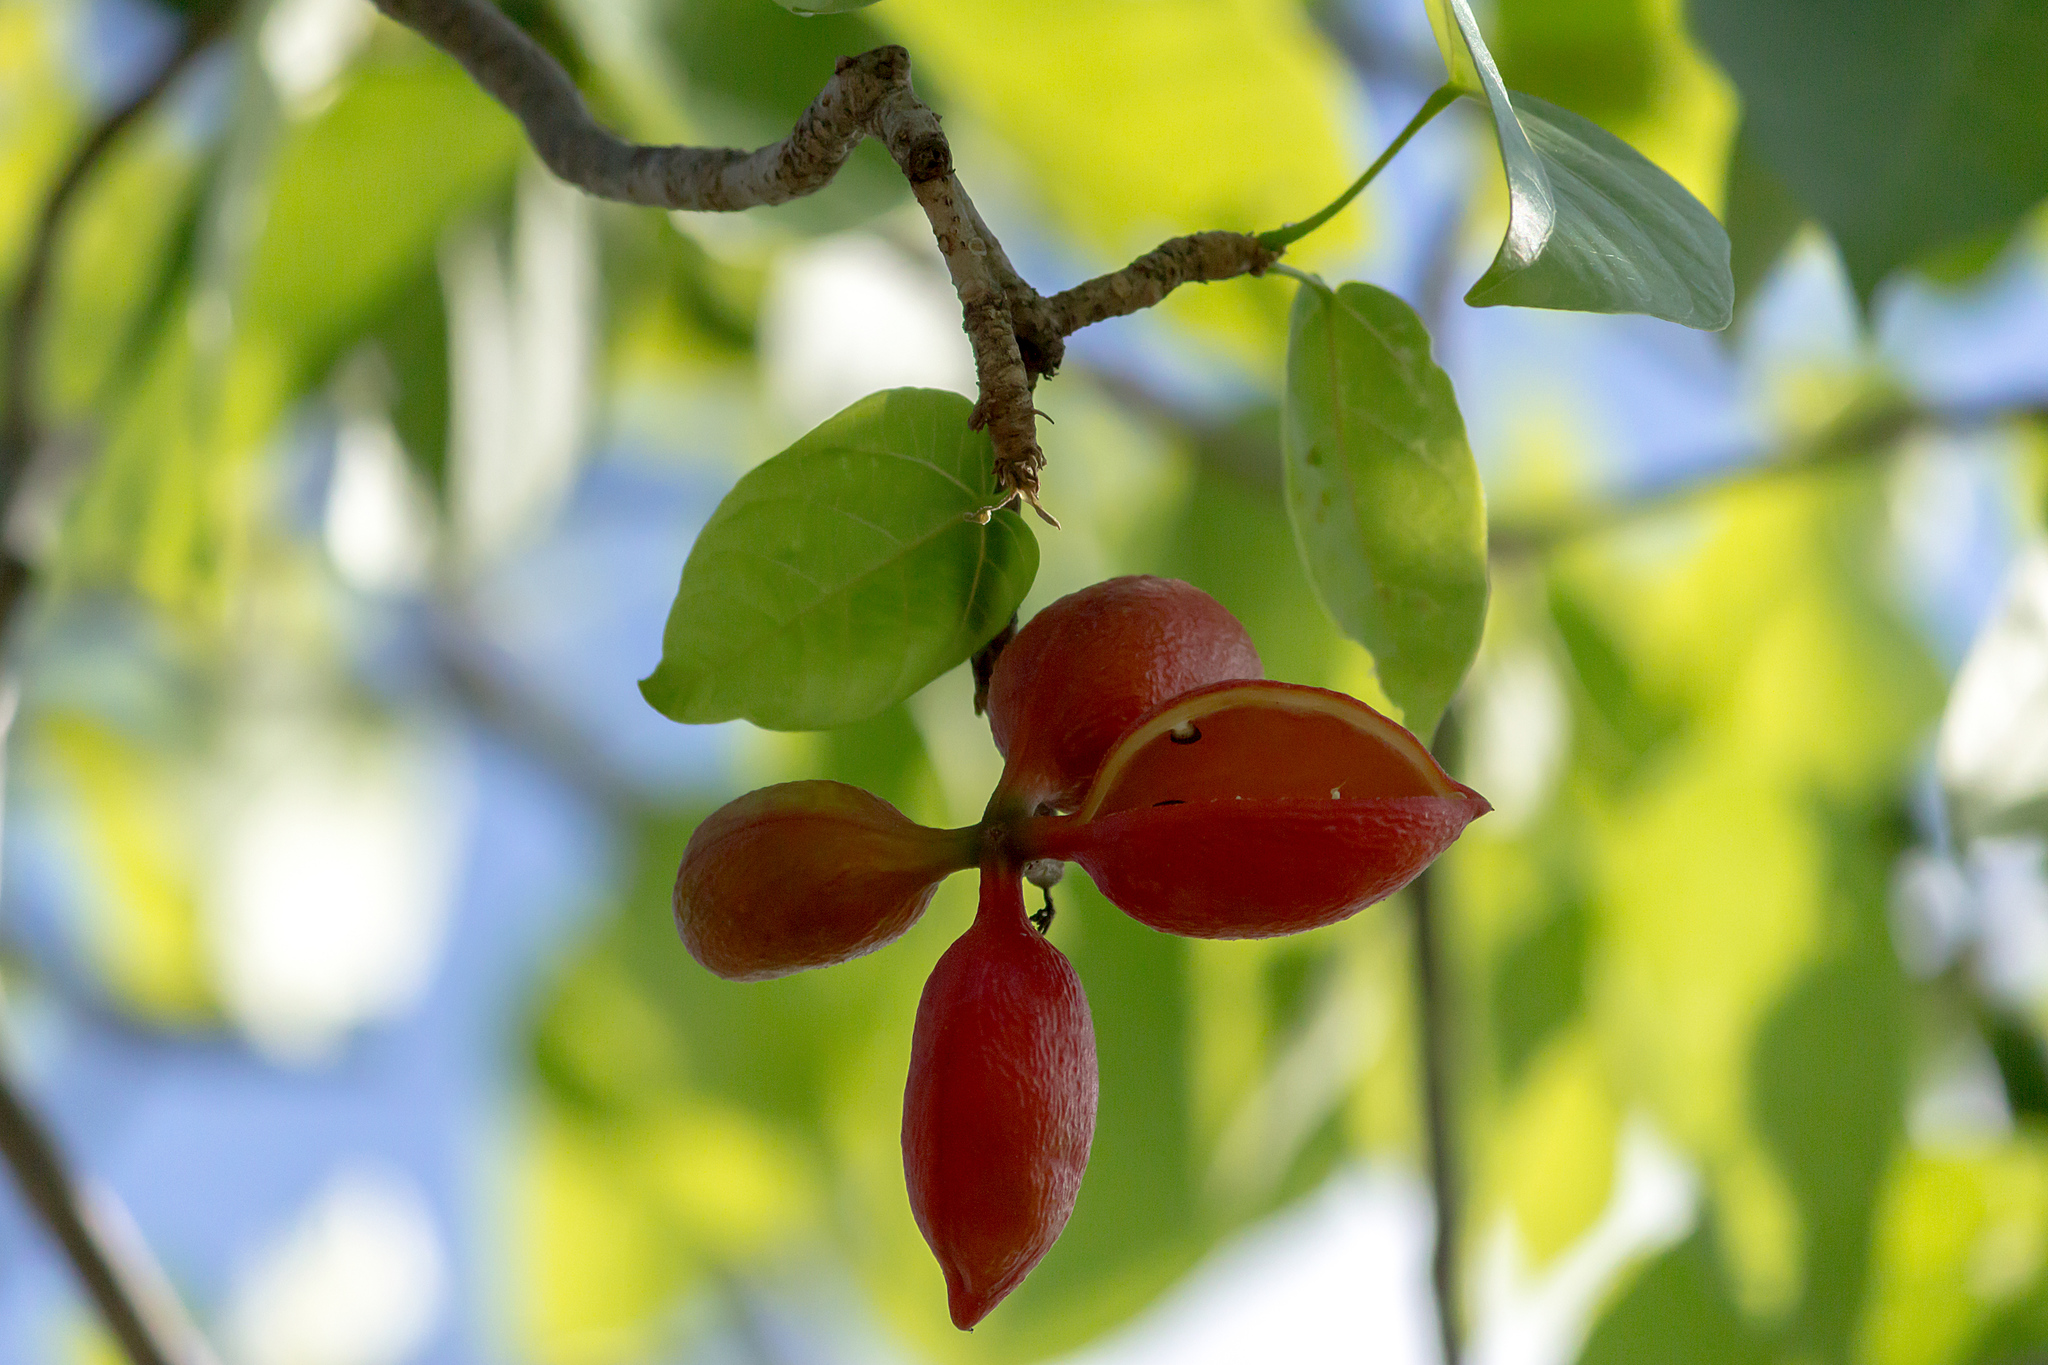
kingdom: Plantae
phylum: Tracheophyta
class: Magnoliopsida
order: Malvales
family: Malvaceae
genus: Sterculia
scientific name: Sterculia quadrifida
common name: Orange-fruit kurrajong
